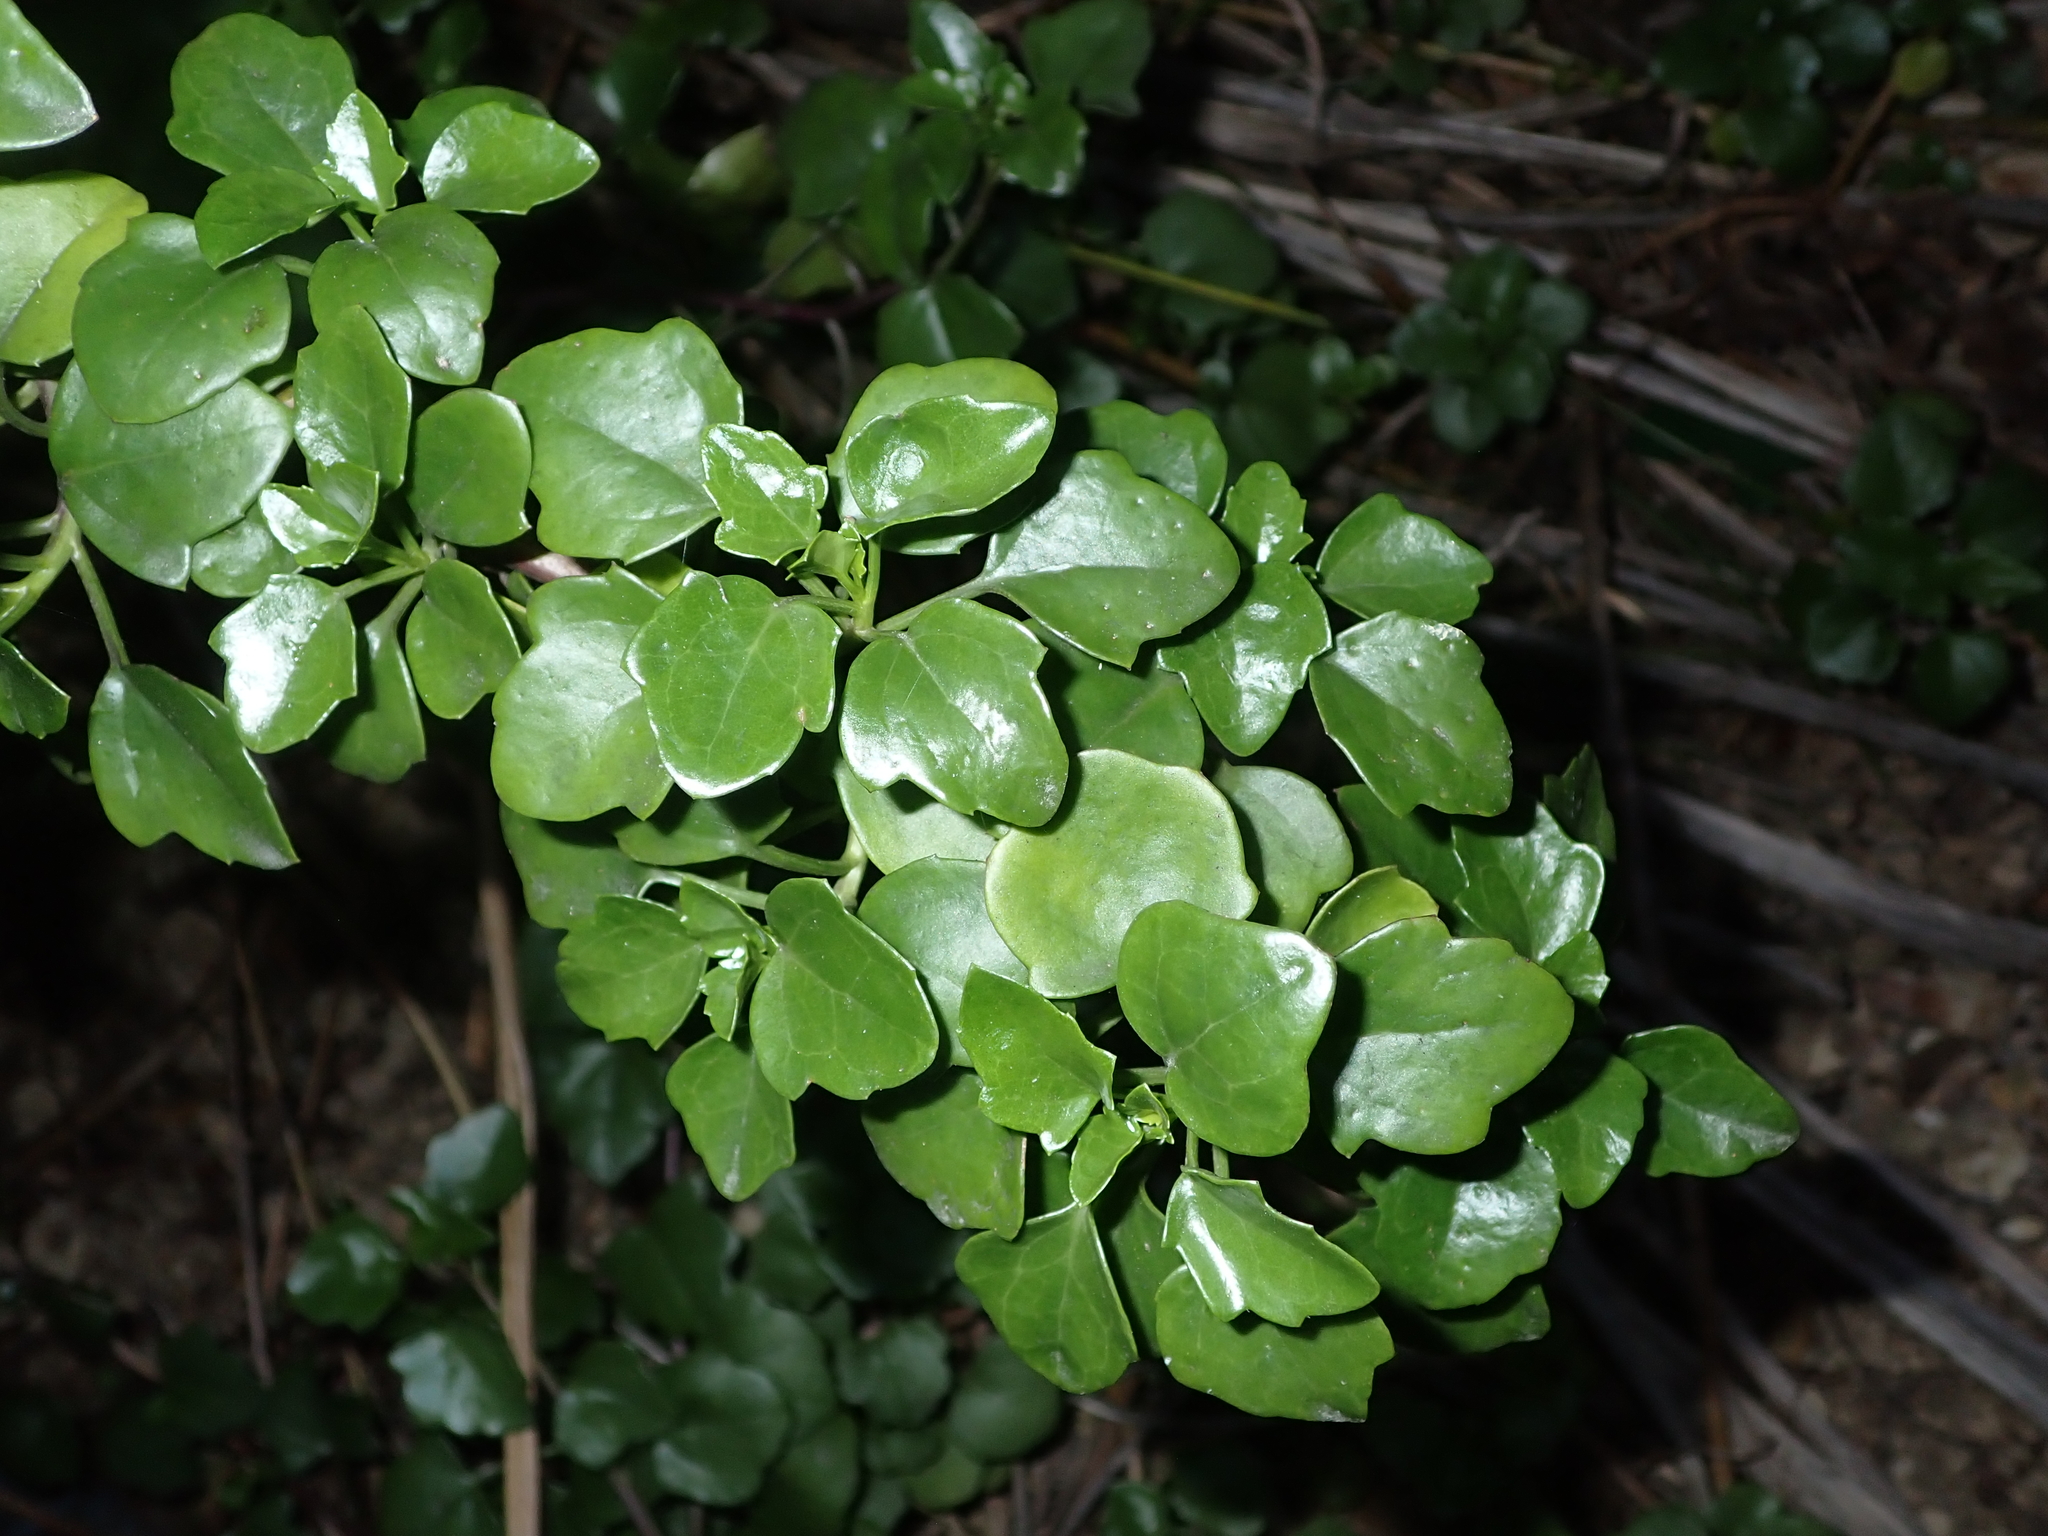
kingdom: Plantae
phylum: Tracheophyta
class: Magnoliopsida
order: Asterales
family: Asteraceae
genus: Senecio
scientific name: Senecio angulatus
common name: Climbing groundsel
